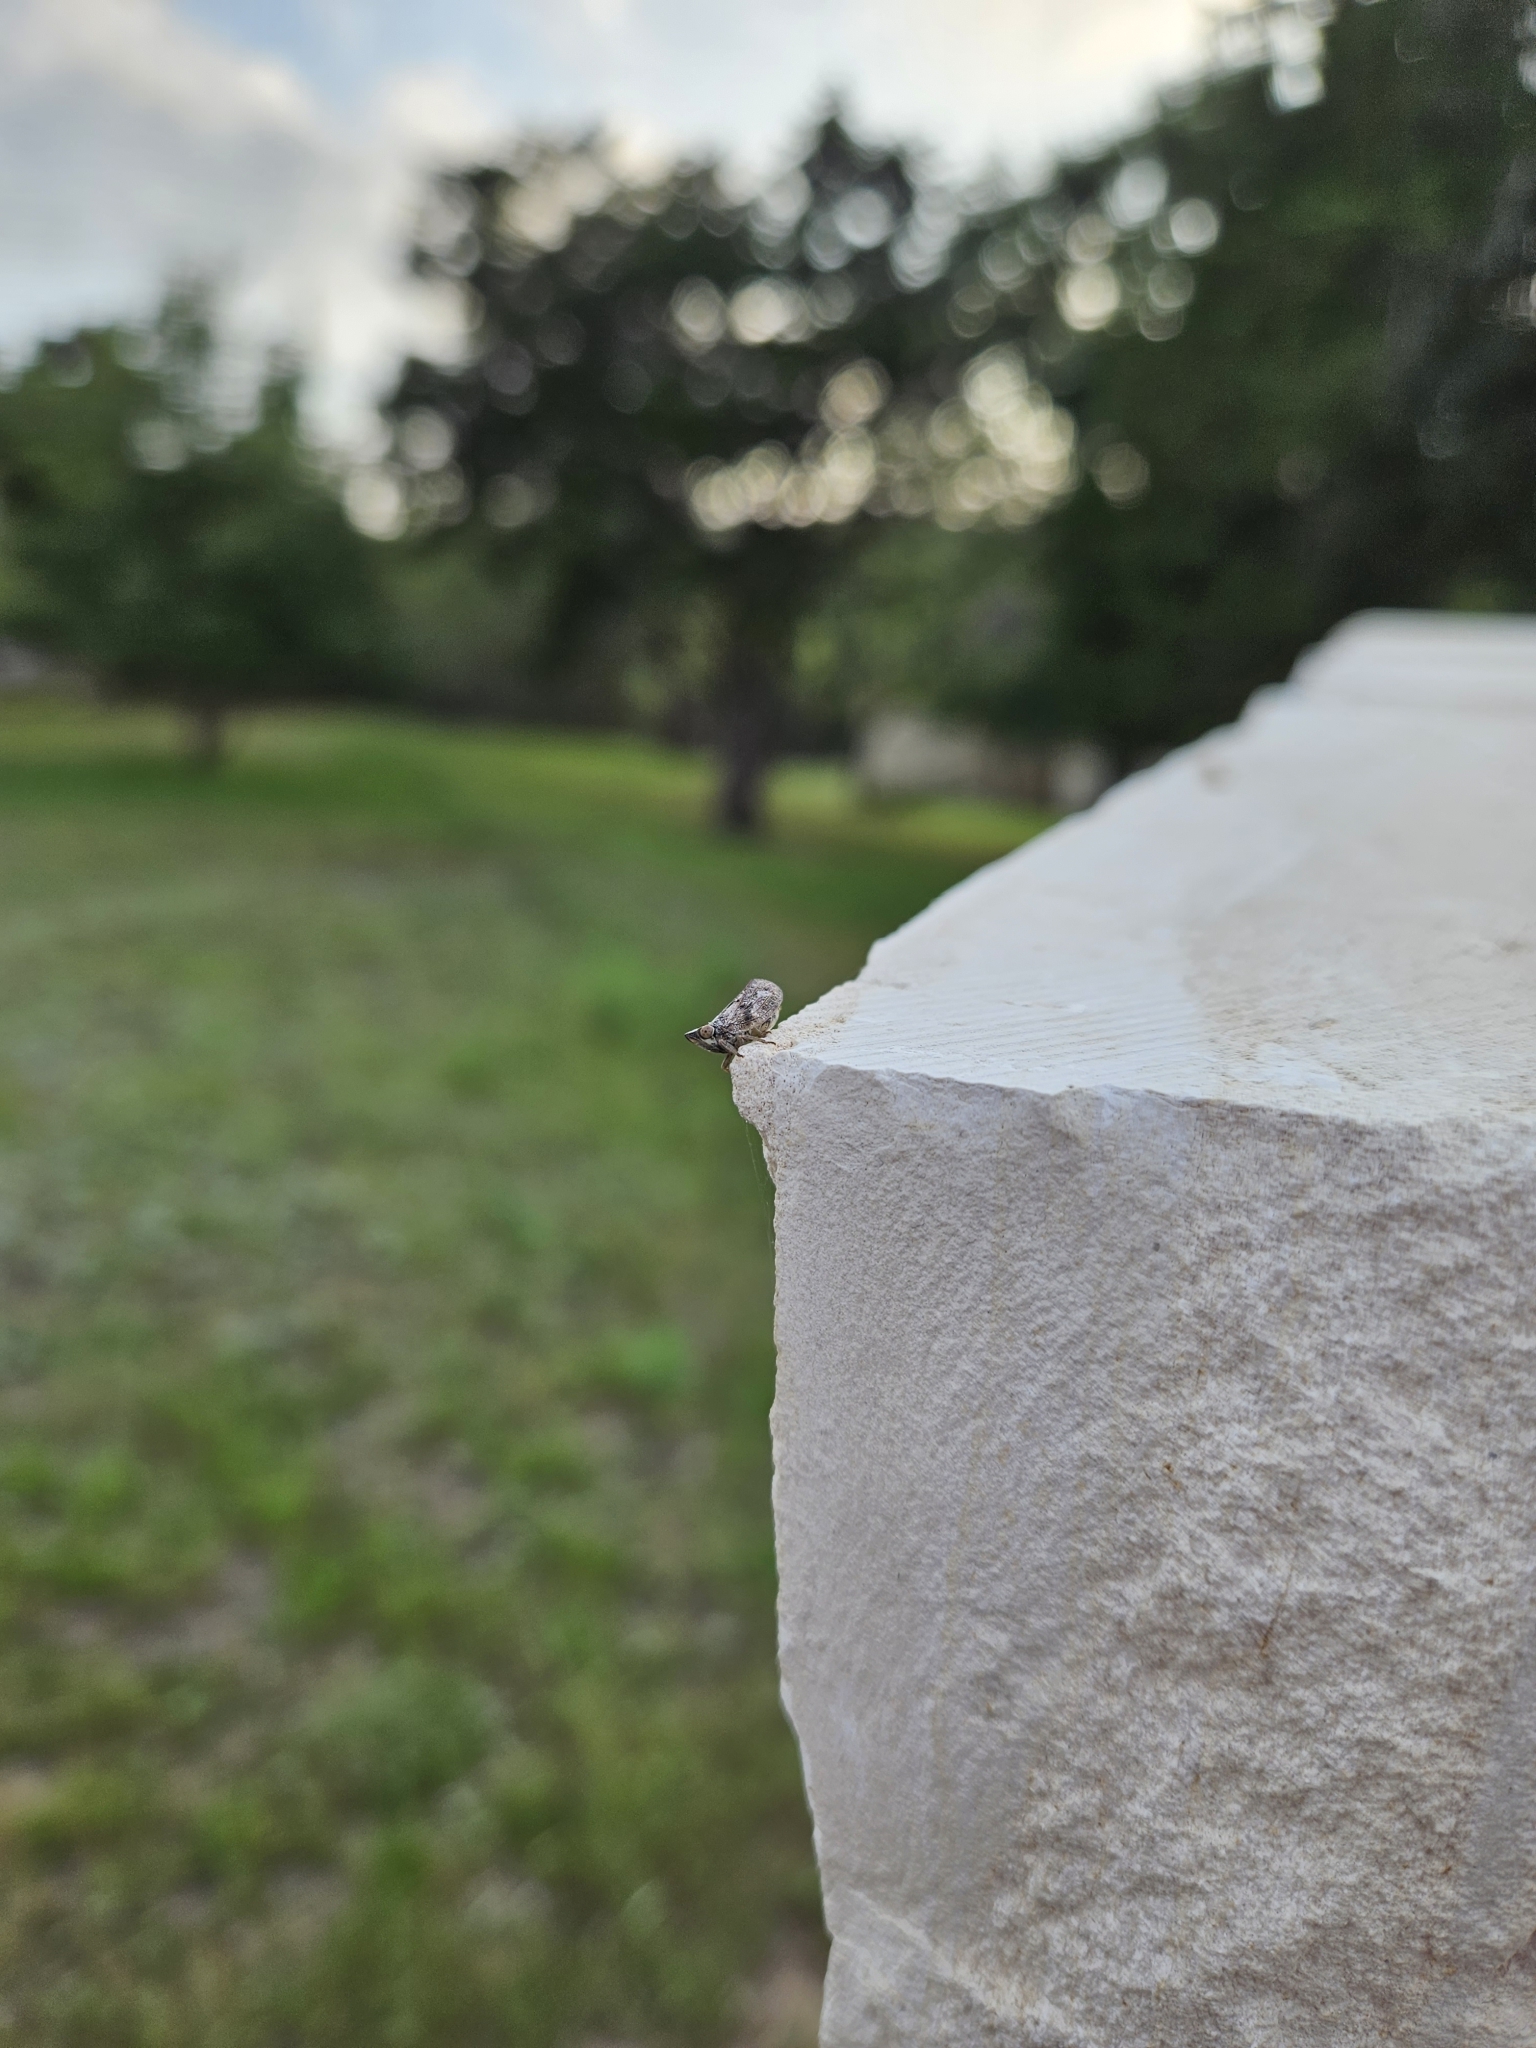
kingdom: Animalia
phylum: Arthropoda
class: Insecta
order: Hemiptera
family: Issidae
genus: Fowlerium
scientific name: Fowlerium acutum
